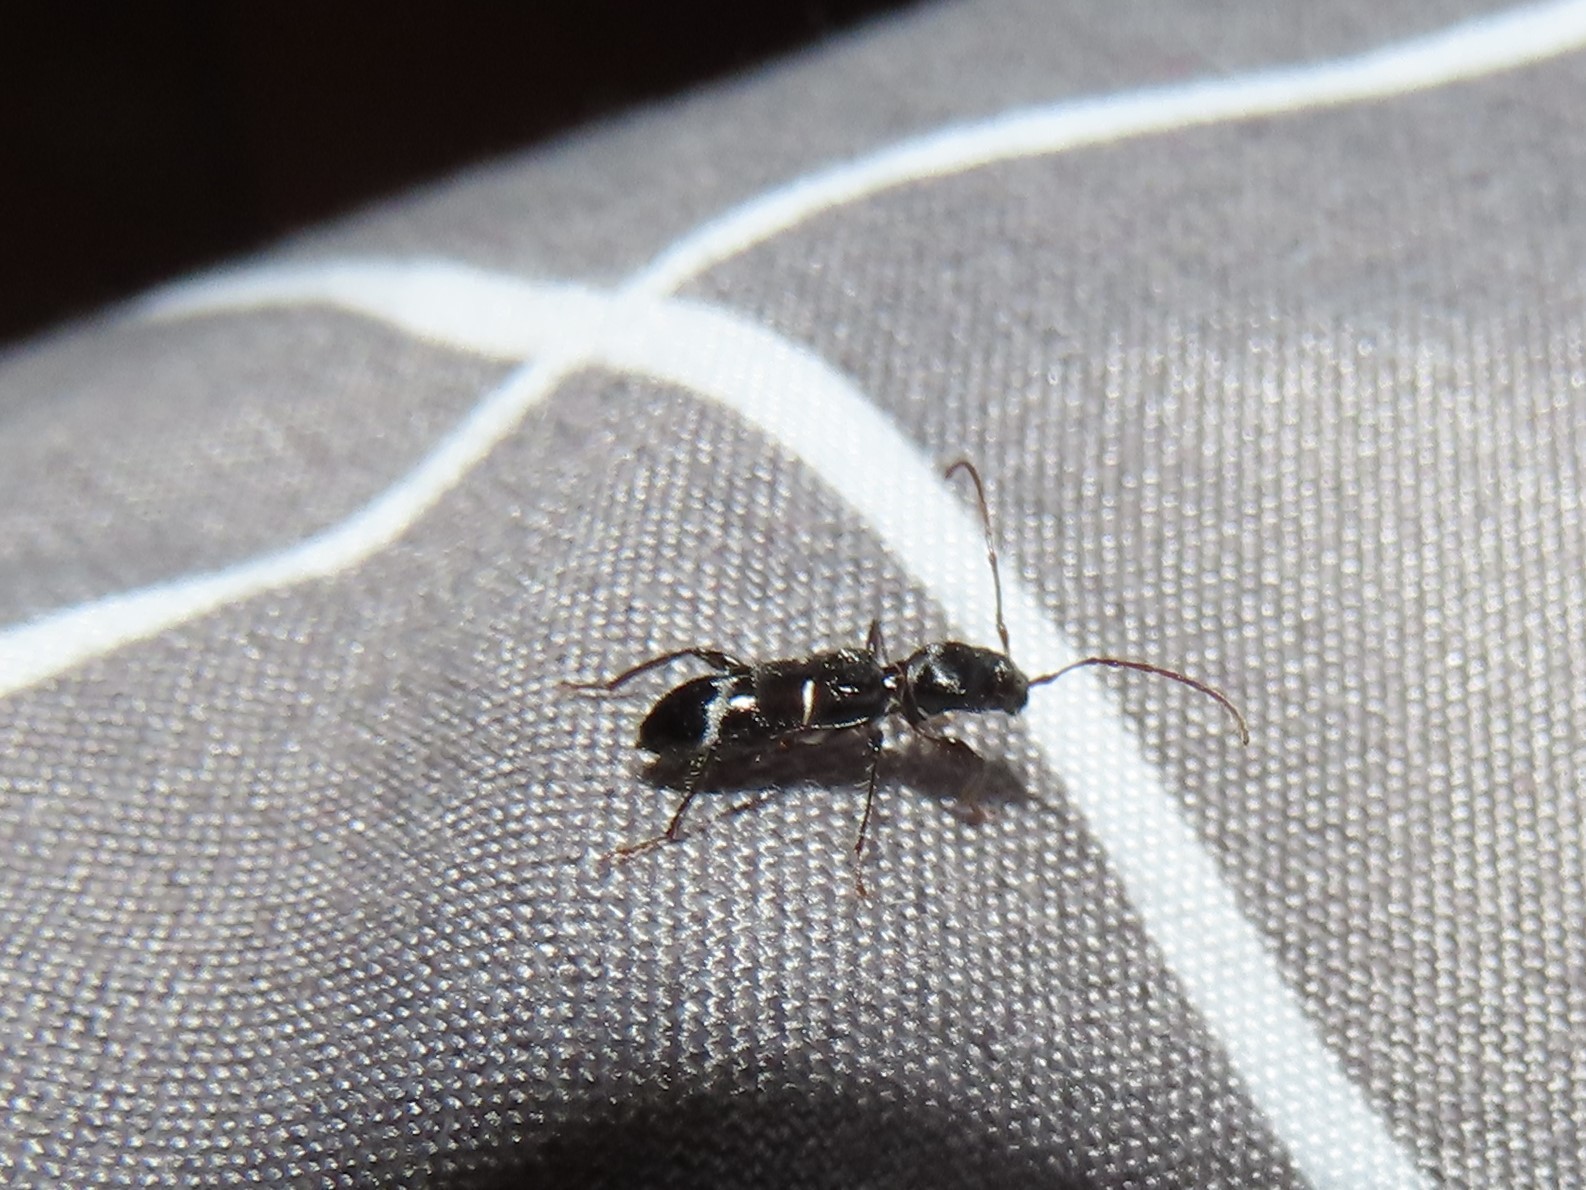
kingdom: Animalia
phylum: Arthropoda
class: Insecta
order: Coleoptera
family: Cerambycidae
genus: Euderces
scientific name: Euderces pini
